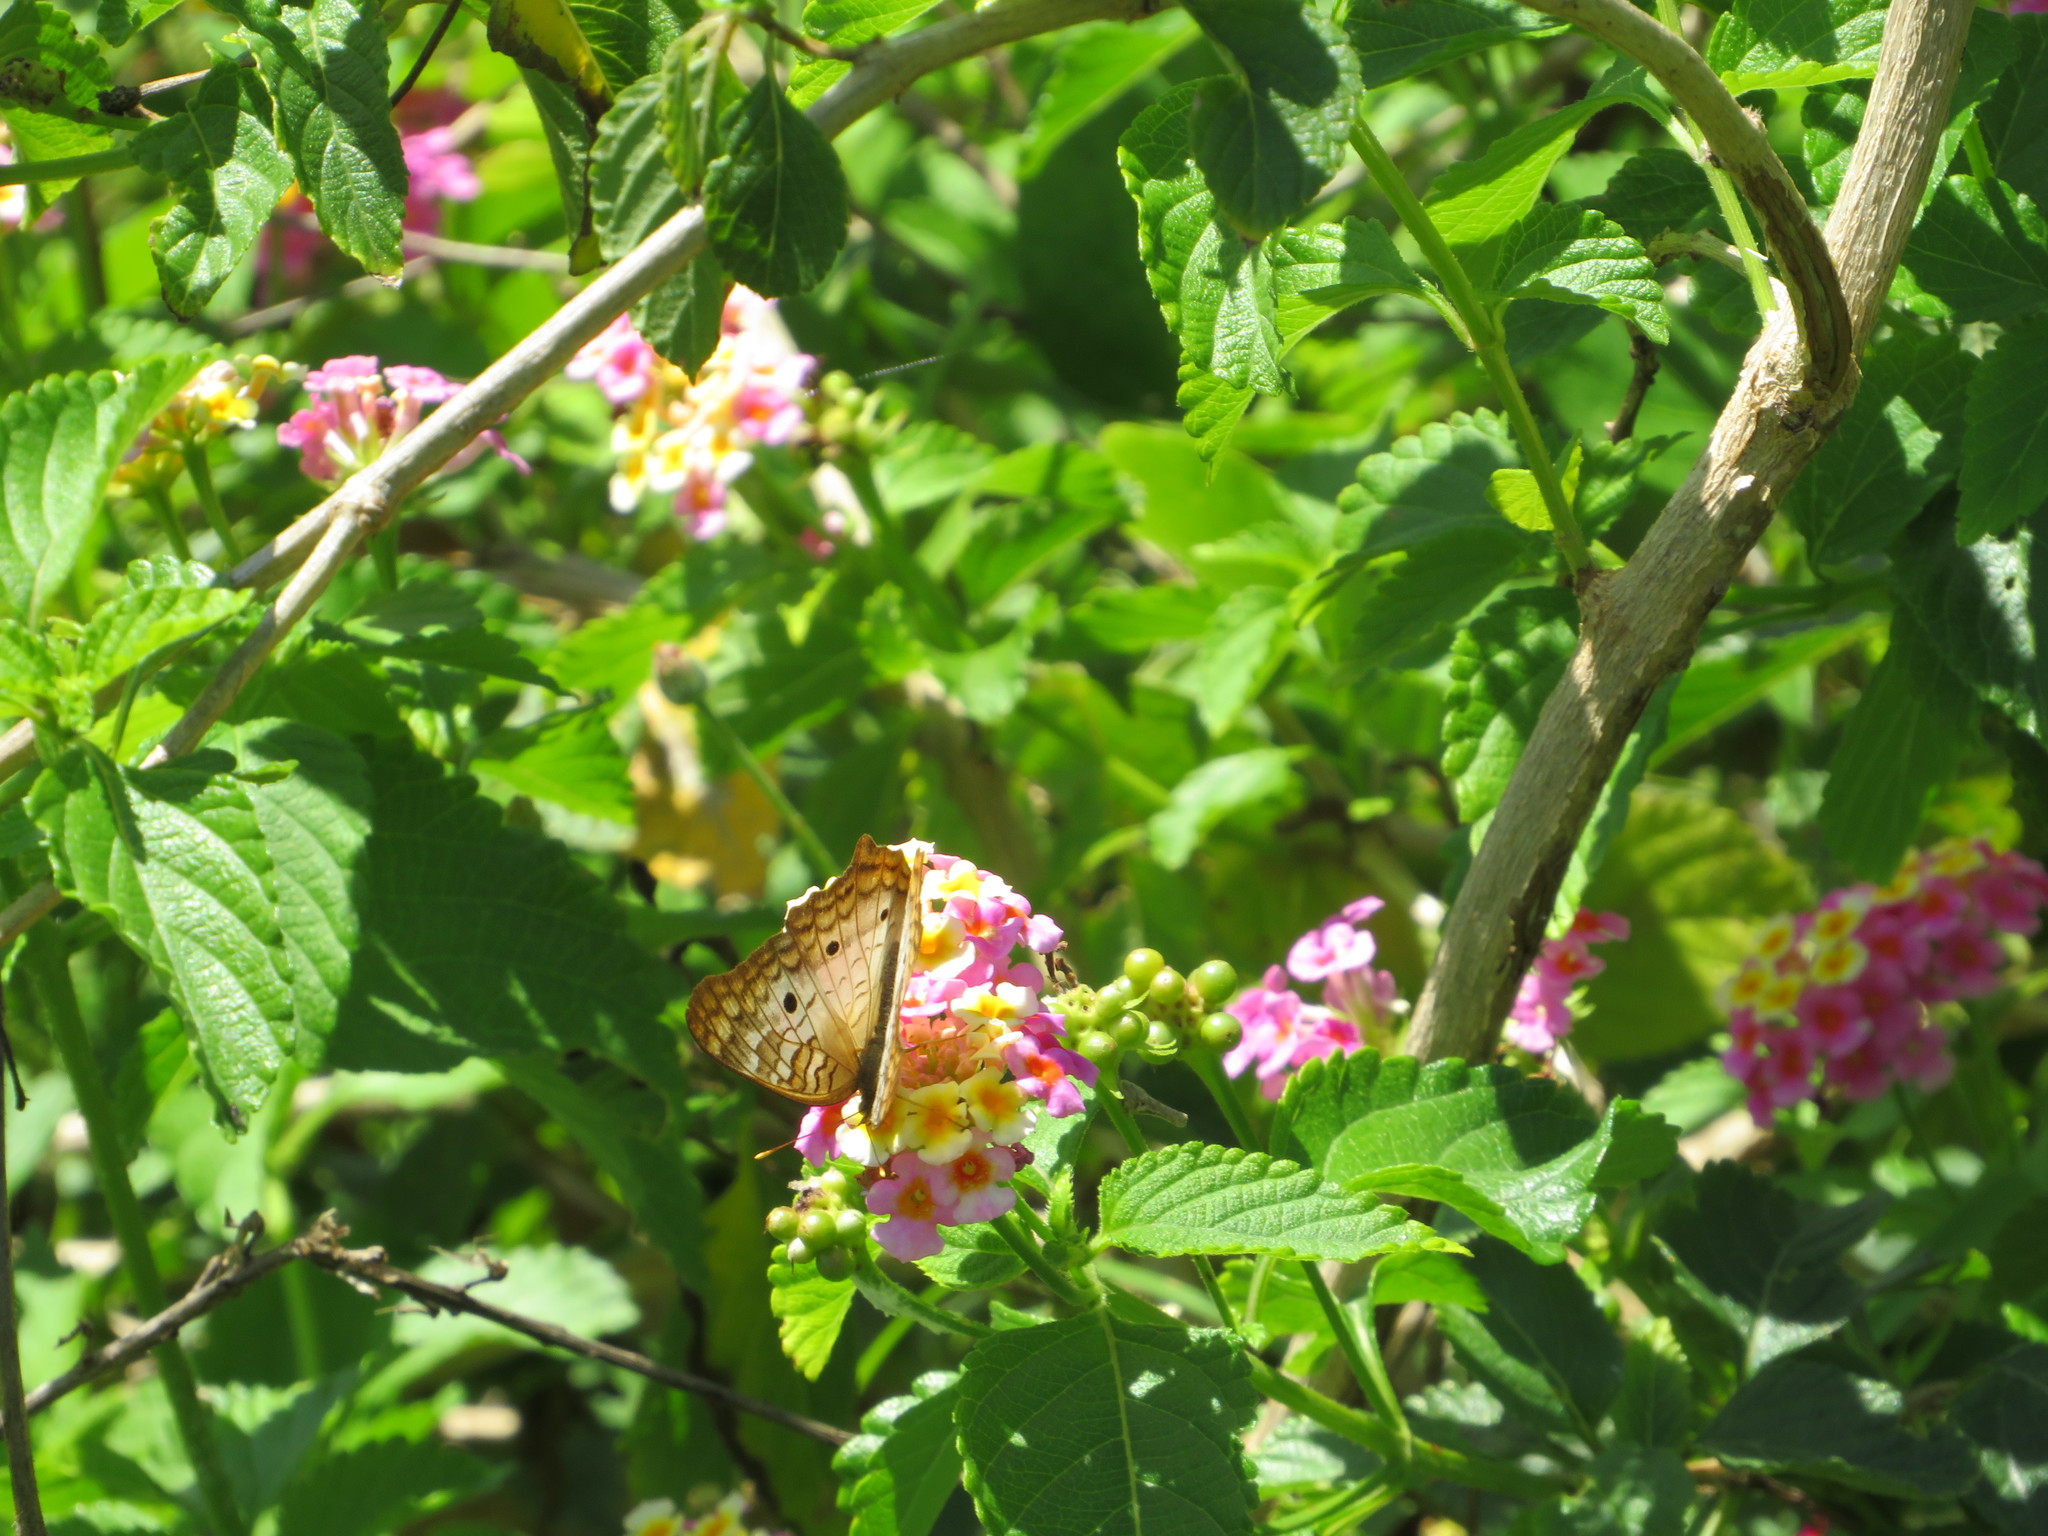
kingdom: Animalia
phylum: Arthropoda
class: Insecta
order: Lepidoptera
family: Nymphalidae
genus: Anartia
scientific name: Anartia jatrophae
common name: White peacock
